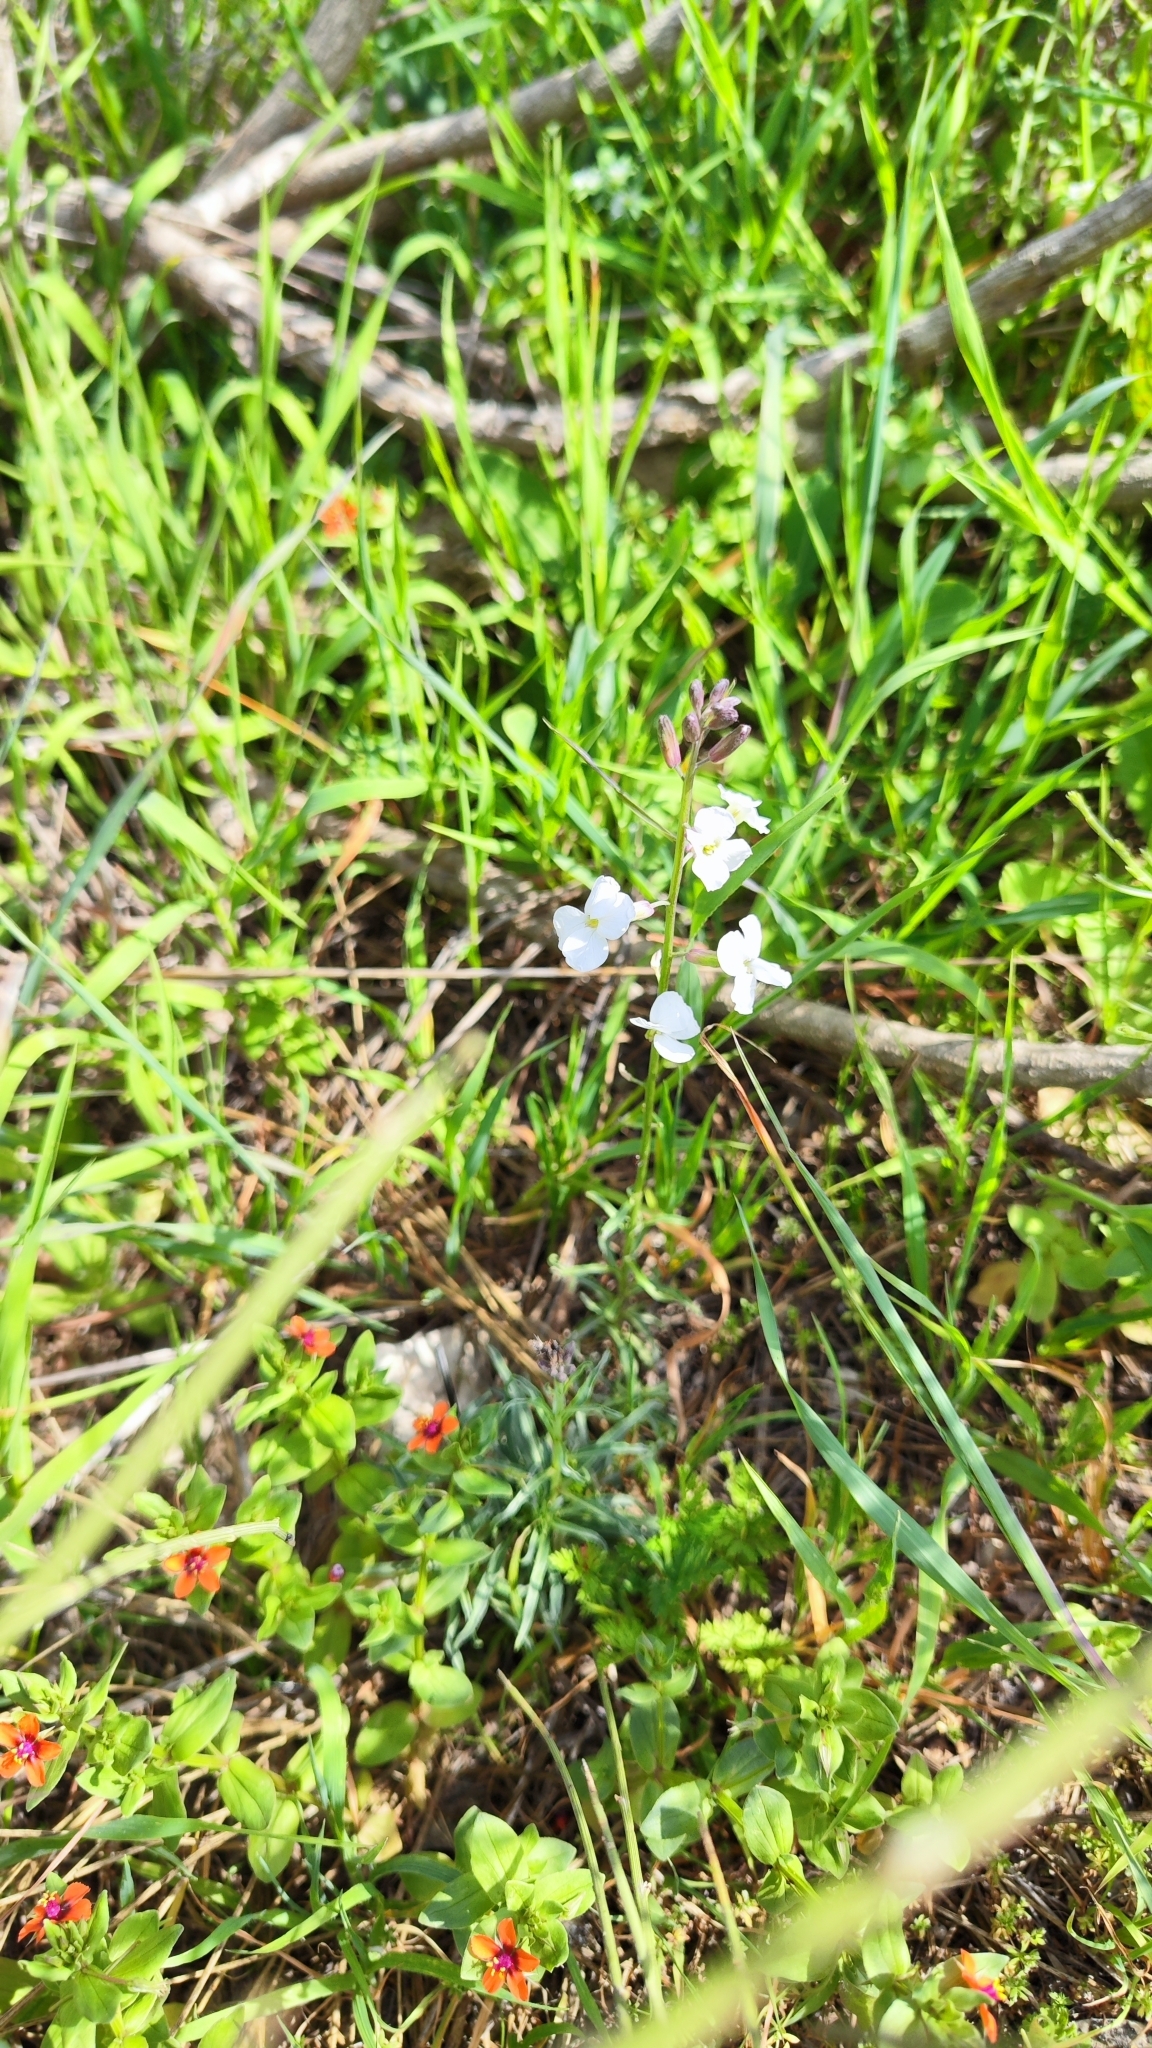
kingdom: Plantae
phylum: Tracheophyta
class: Magnoliopsida
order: Brassicales
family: Brassicaceae
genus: Erysimum
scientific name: Erysimum semperflorens
